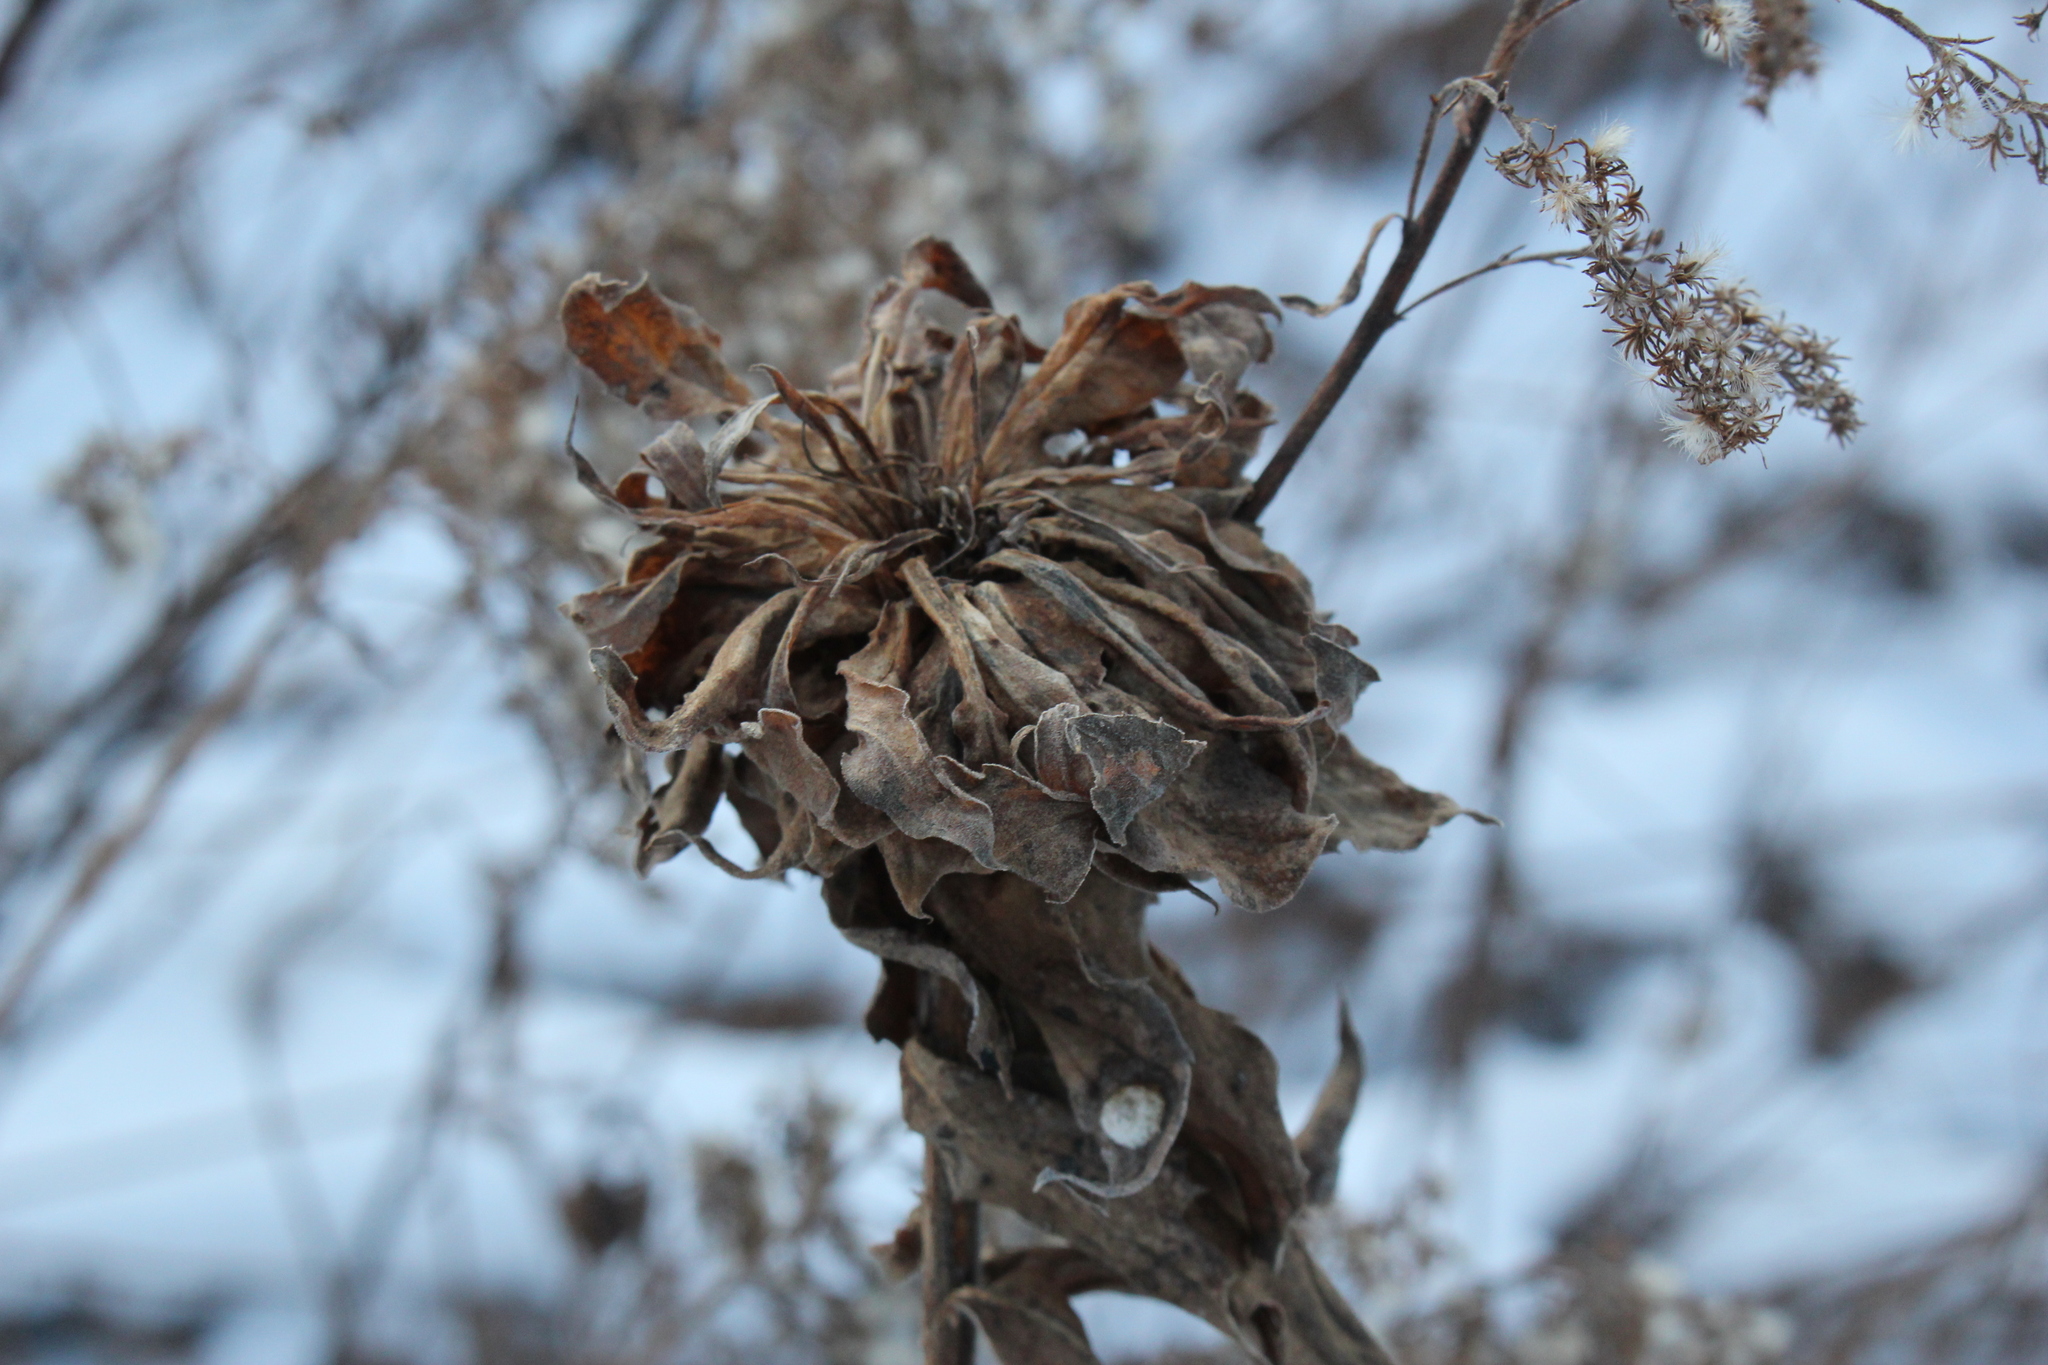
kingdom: Animalia
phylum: Arthropoda
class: Insecta
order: Diptera
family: Cecidomyiidae
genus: Rhopalomyia
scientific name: Rhopalomyia solidaginis
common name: Goldenrod bunch gall midge
